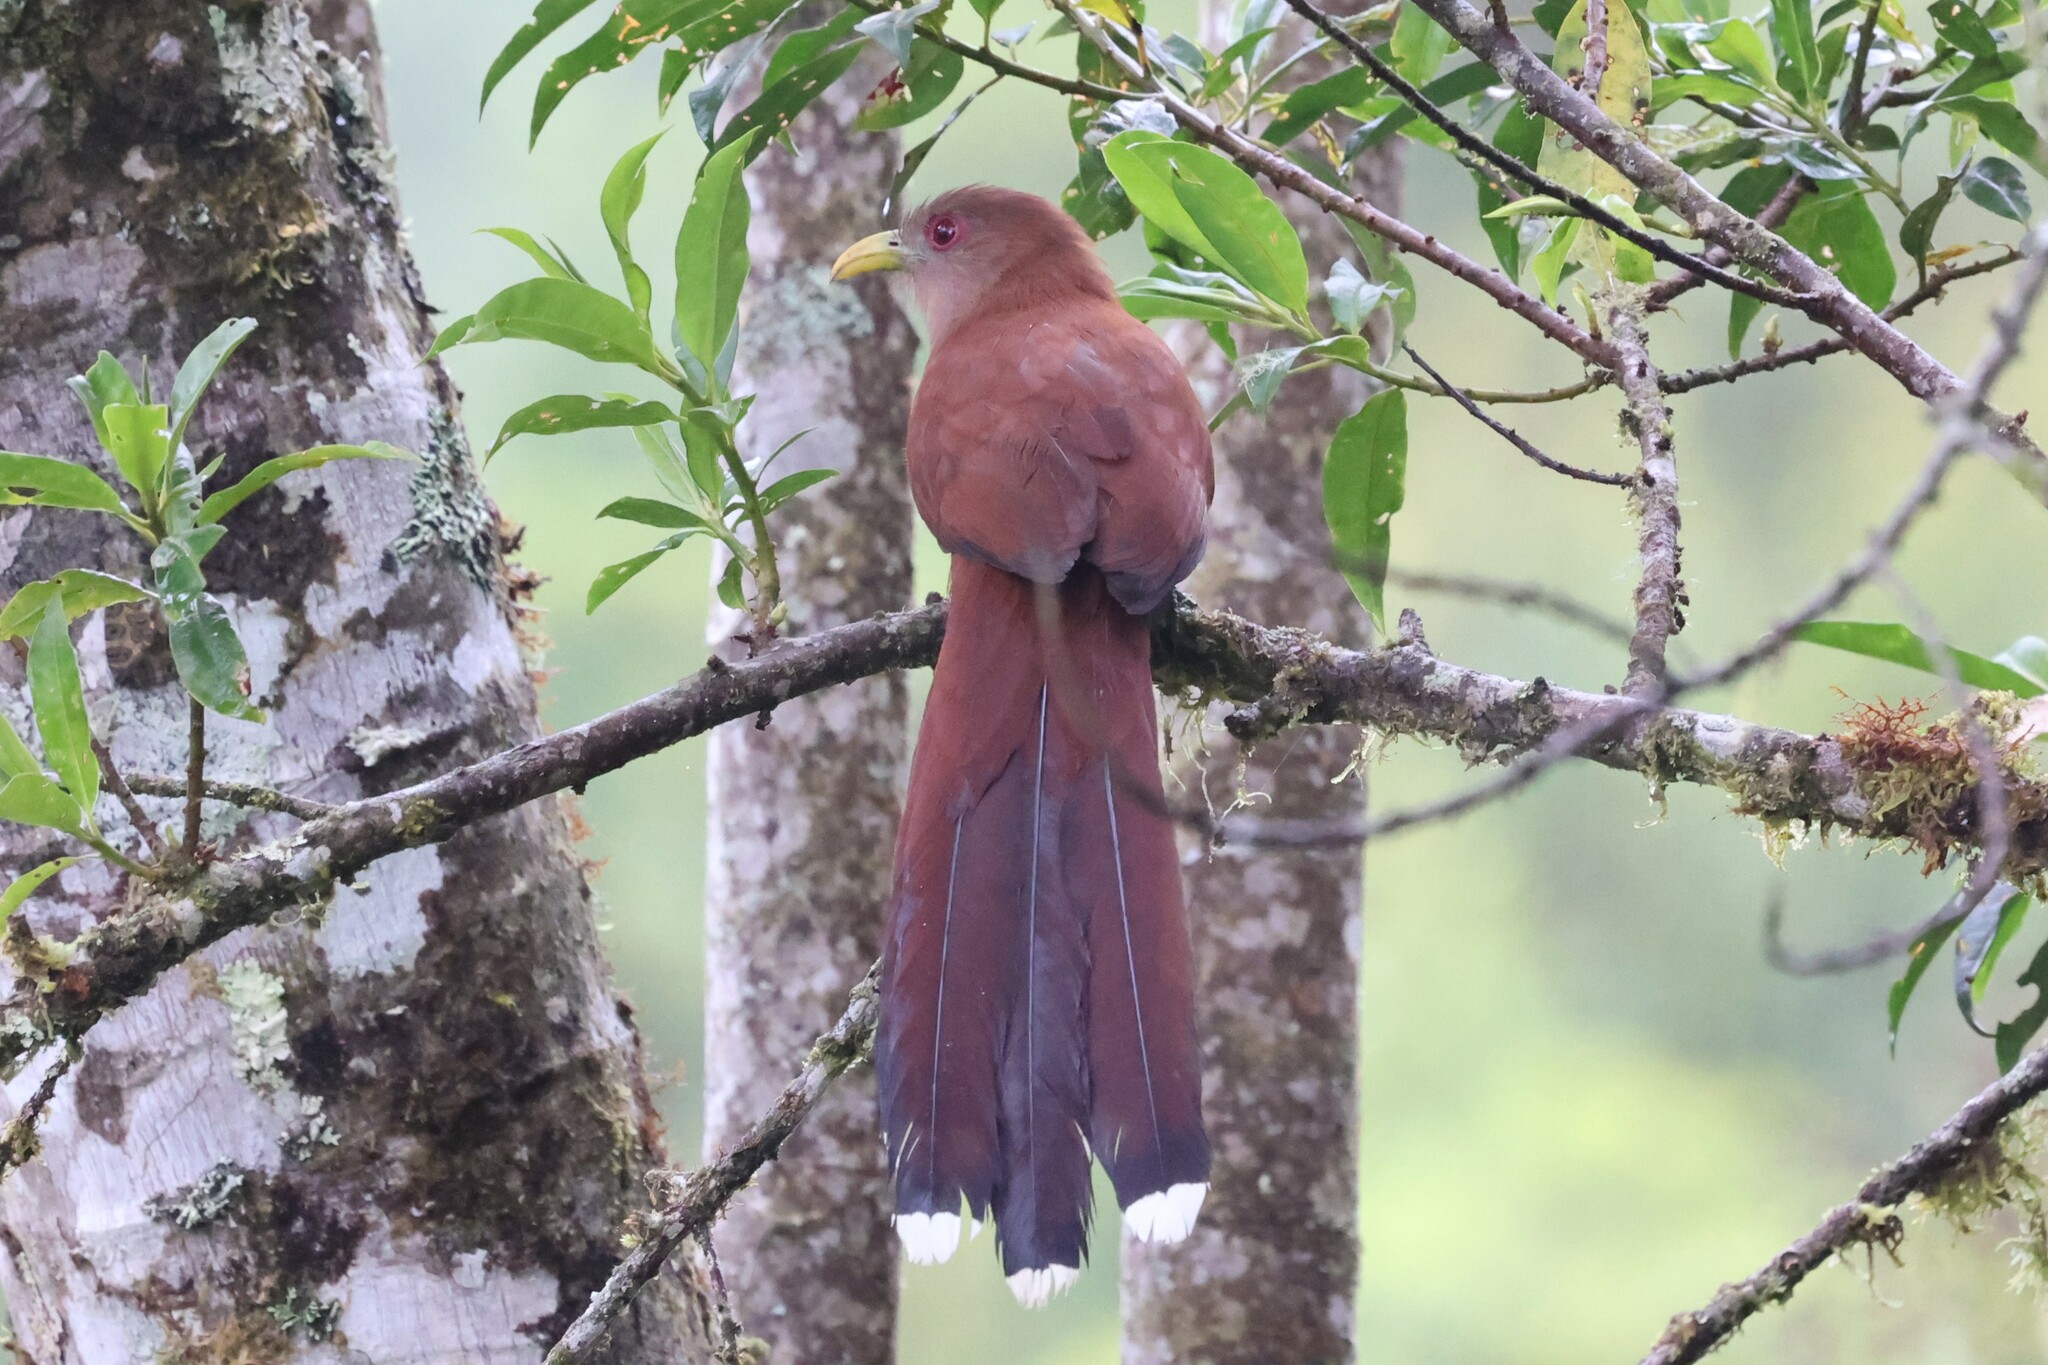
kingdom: Animalia
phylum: Chordata
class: Aves
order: Cuculiformes
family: Cuculidae
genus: Piaya
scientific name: Piaya cayana
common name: Squirrel cuckoo
